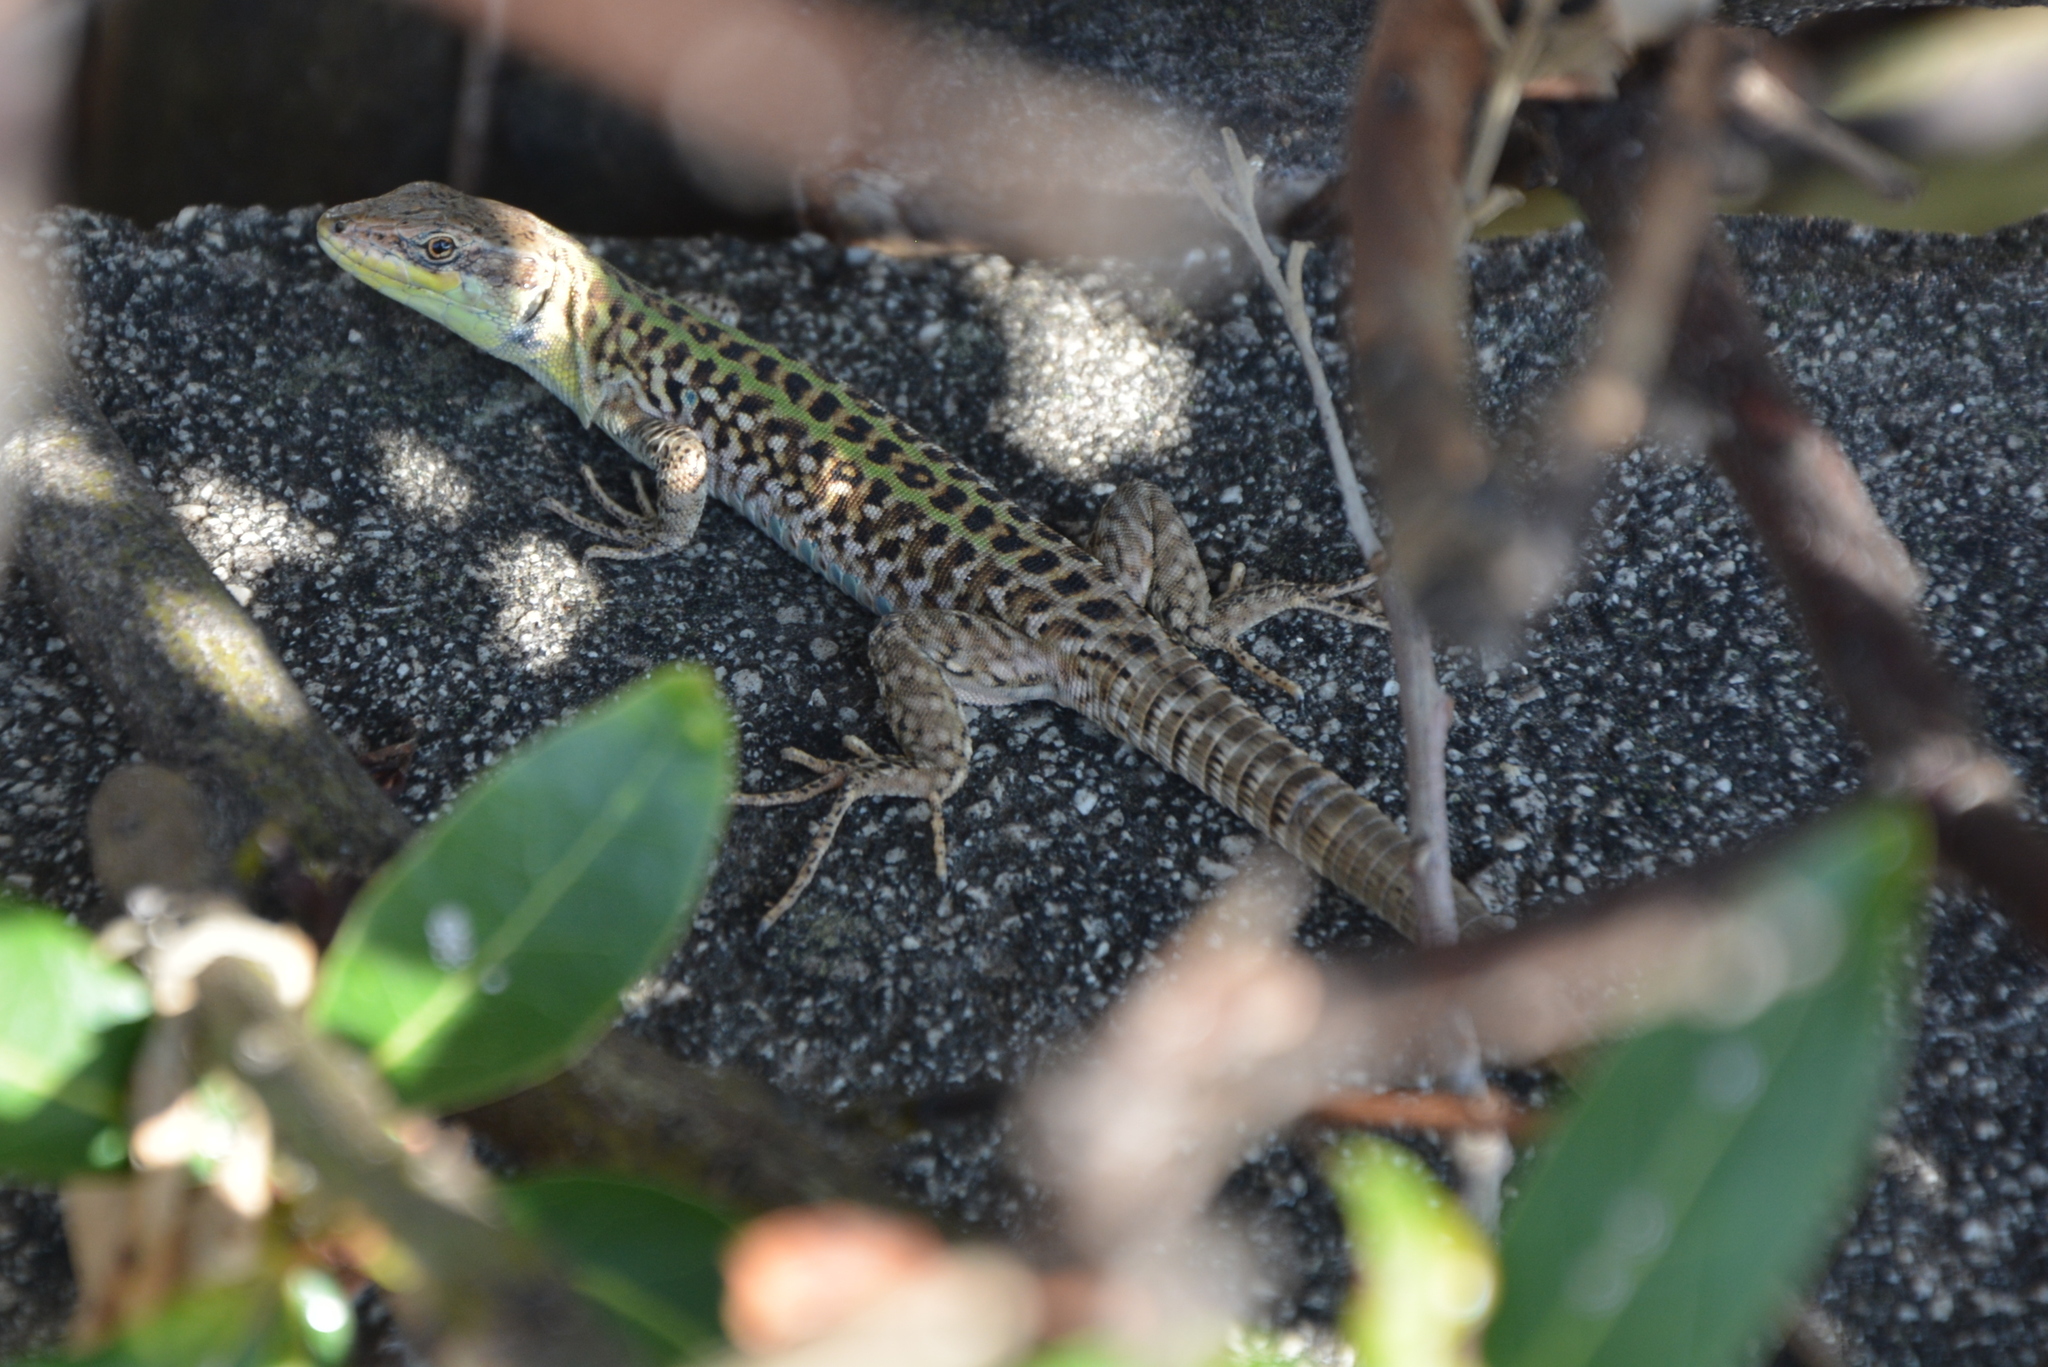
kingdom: Animalia
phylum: Chordata
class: Squamata
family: Lacertidae
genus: Podarcis
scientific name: Podarcis siculus
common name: Italian wall lizard
